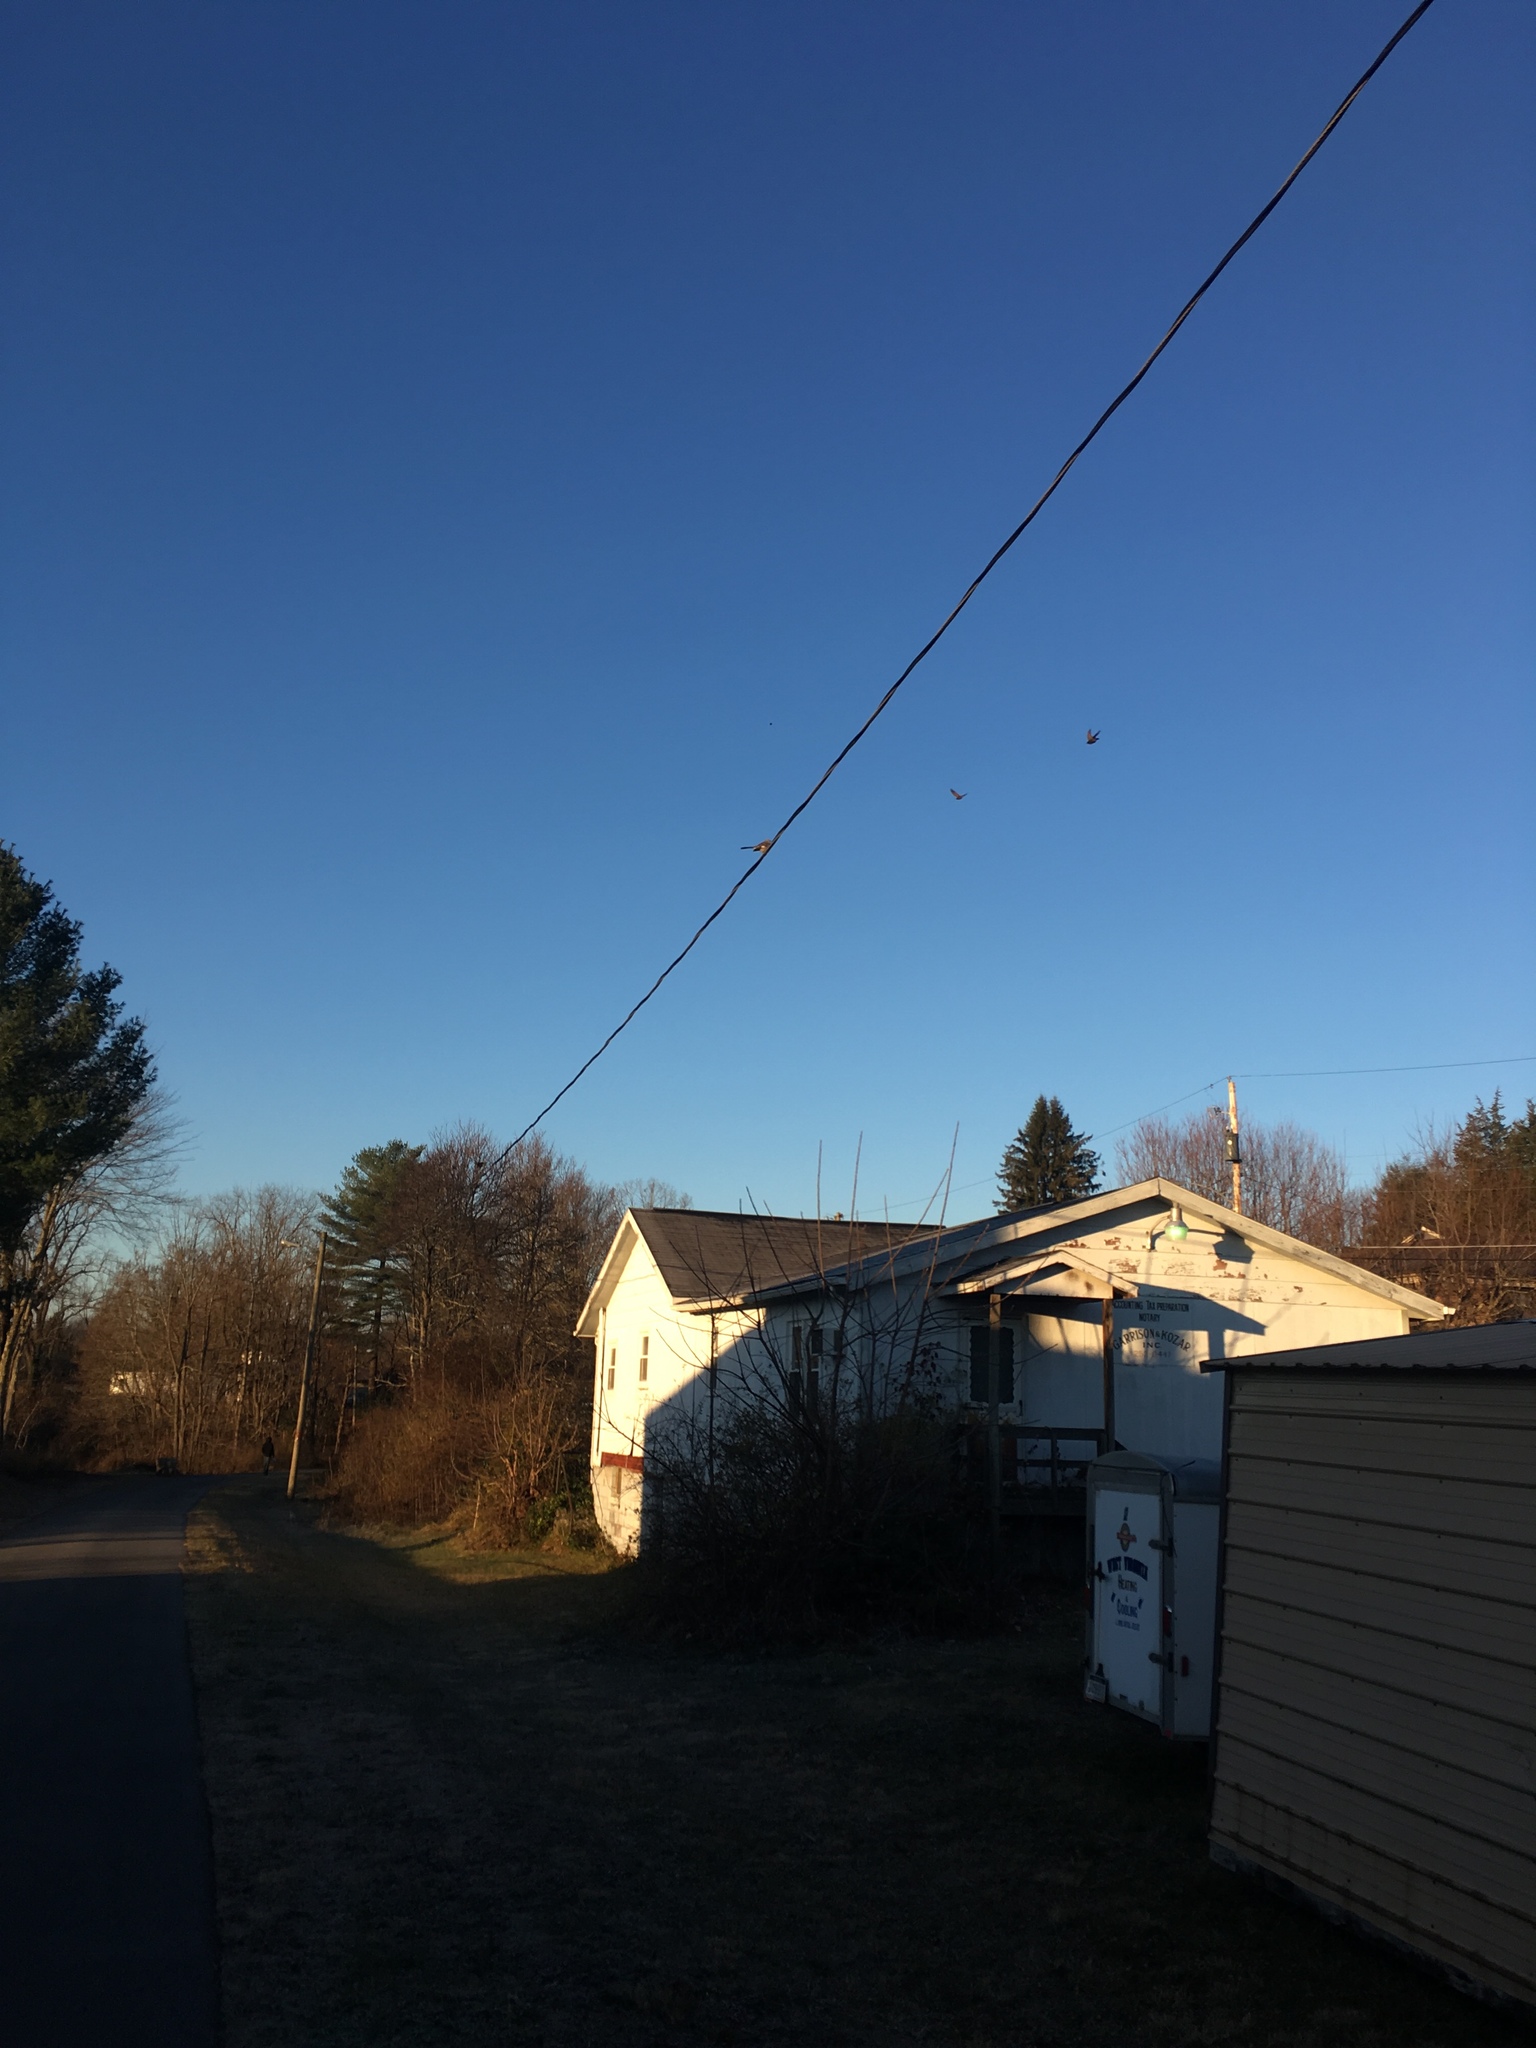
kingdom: Animalia
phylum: Chordata
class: Aves
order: Passeriformes
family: Mimidae
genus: Mimus
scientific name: Mimus polyglottos
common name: Northern mockingbird
